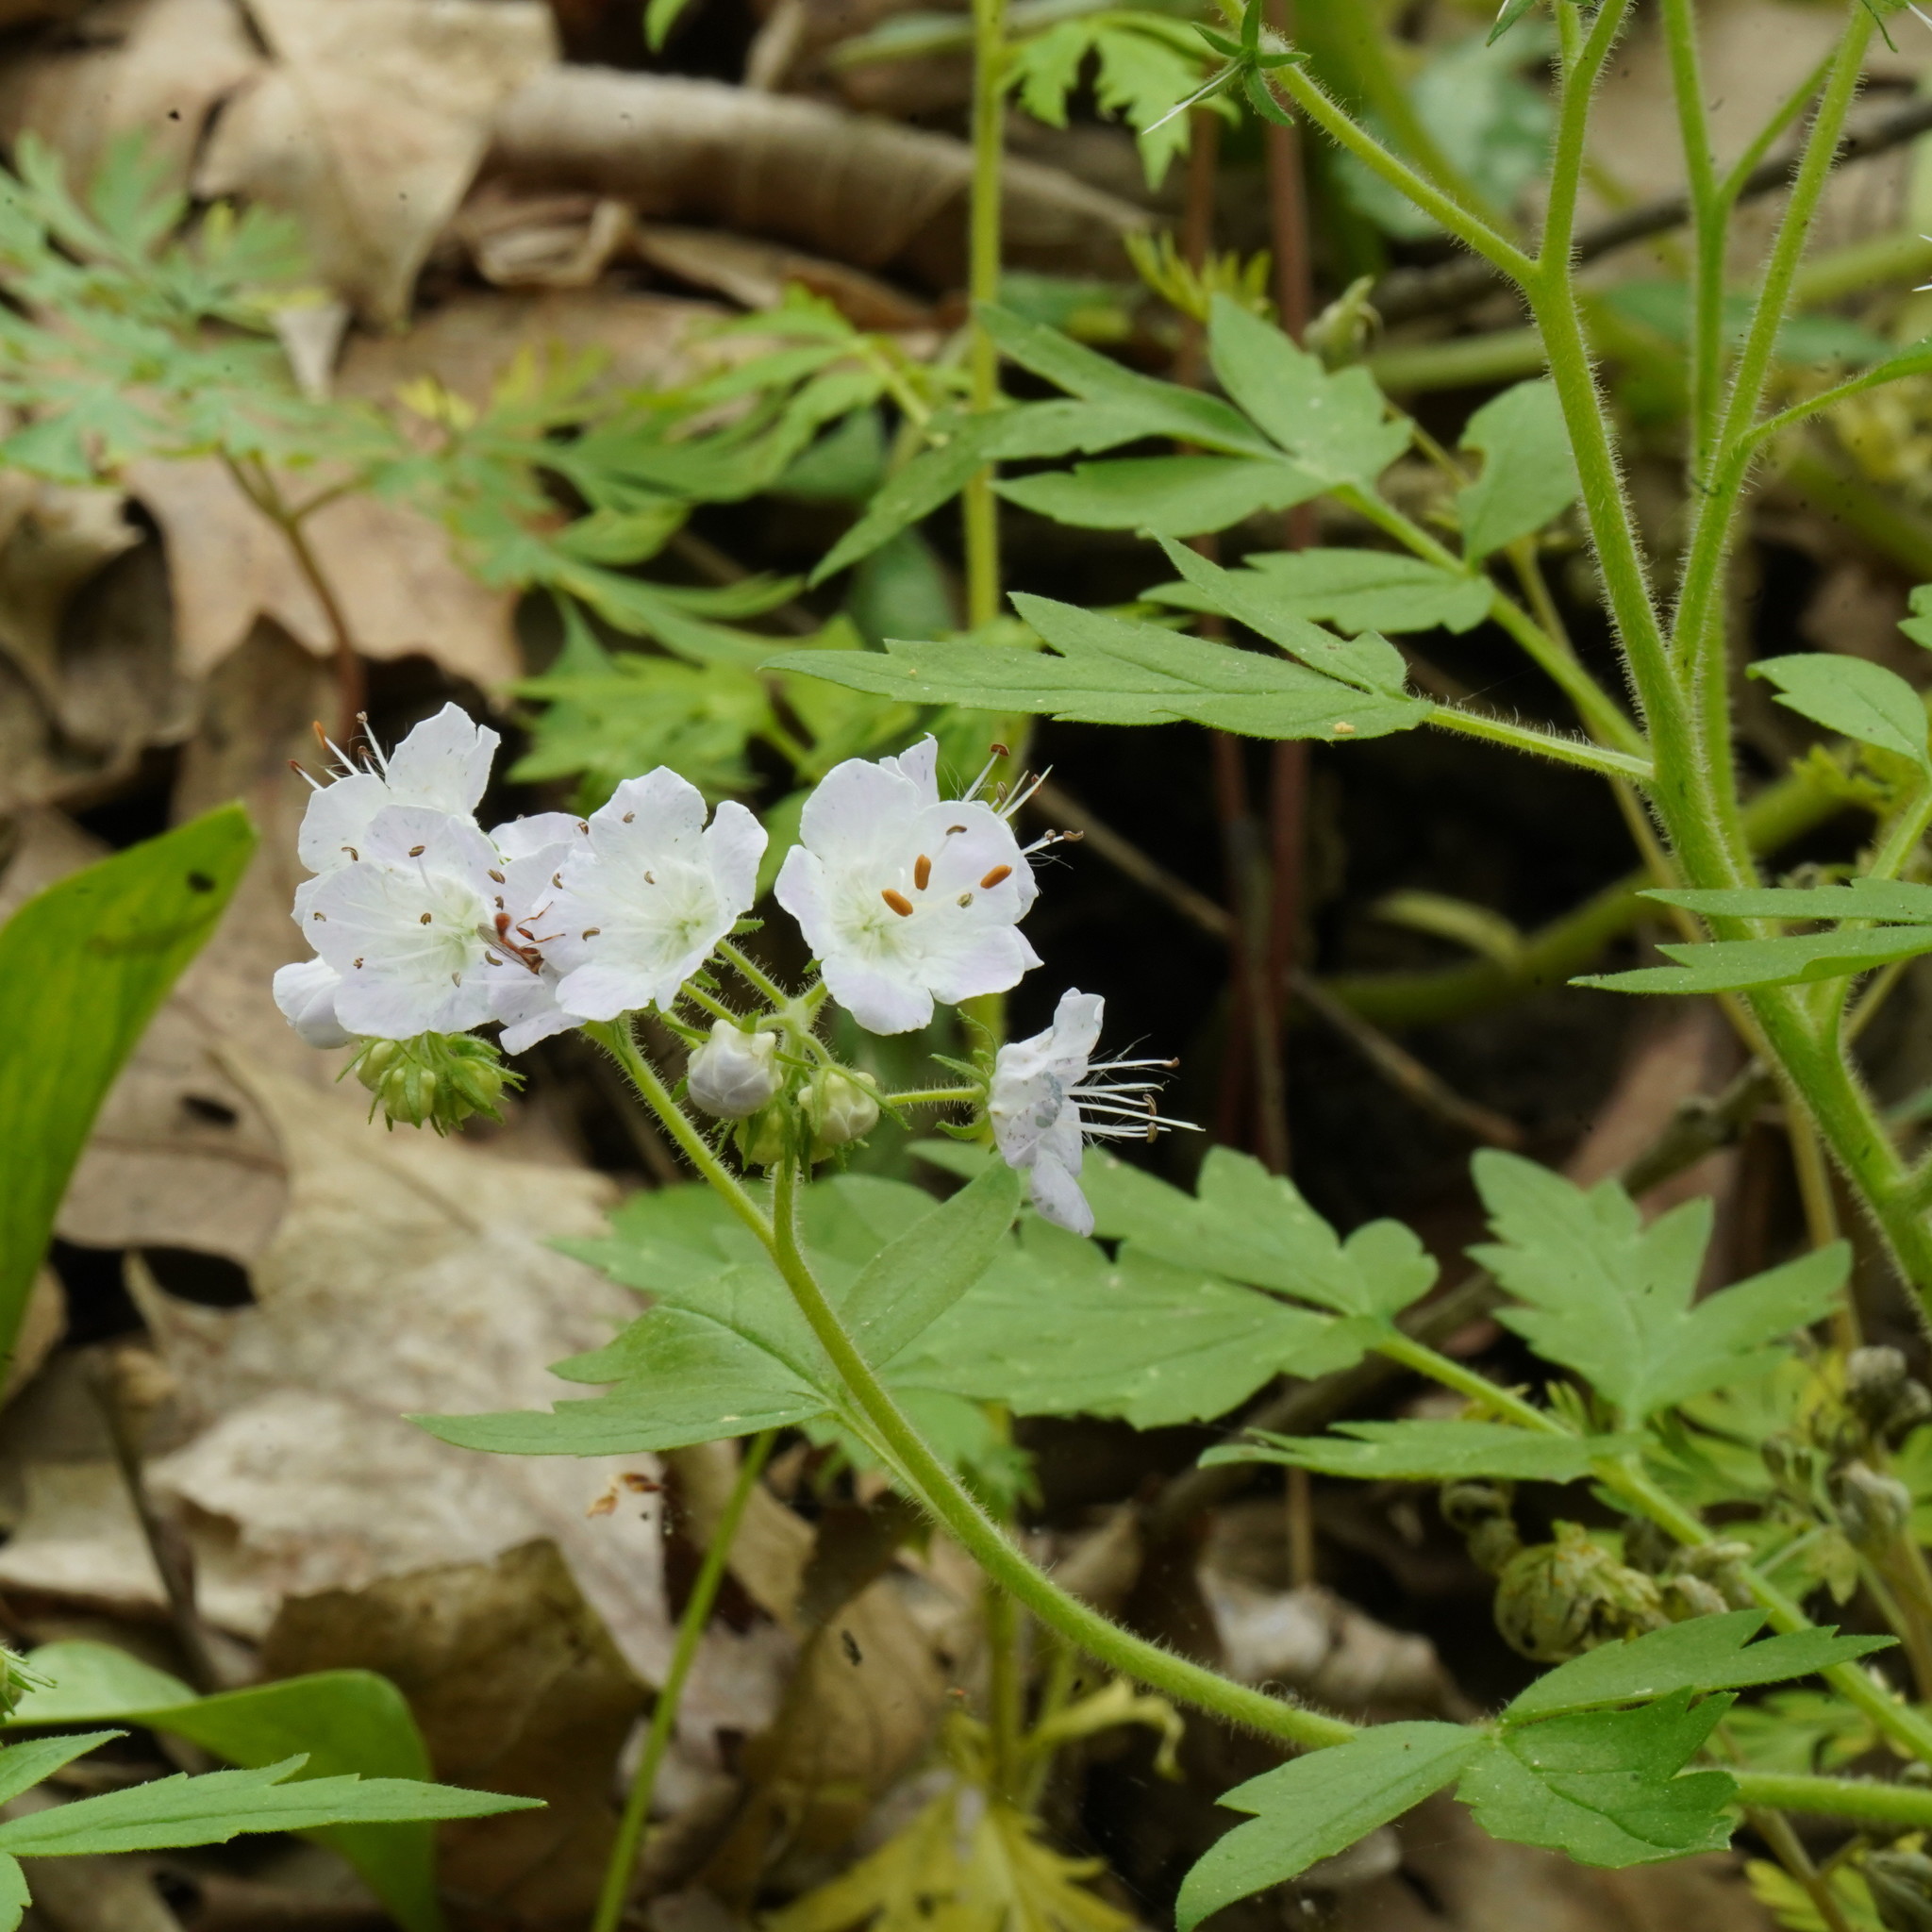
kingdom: Plantae
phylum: Tracheophyta
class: Magnoliopsida
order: Boraginales
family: Hydrophyllaceae
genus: Phacelia
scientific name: Phacelia bipinnatifida
